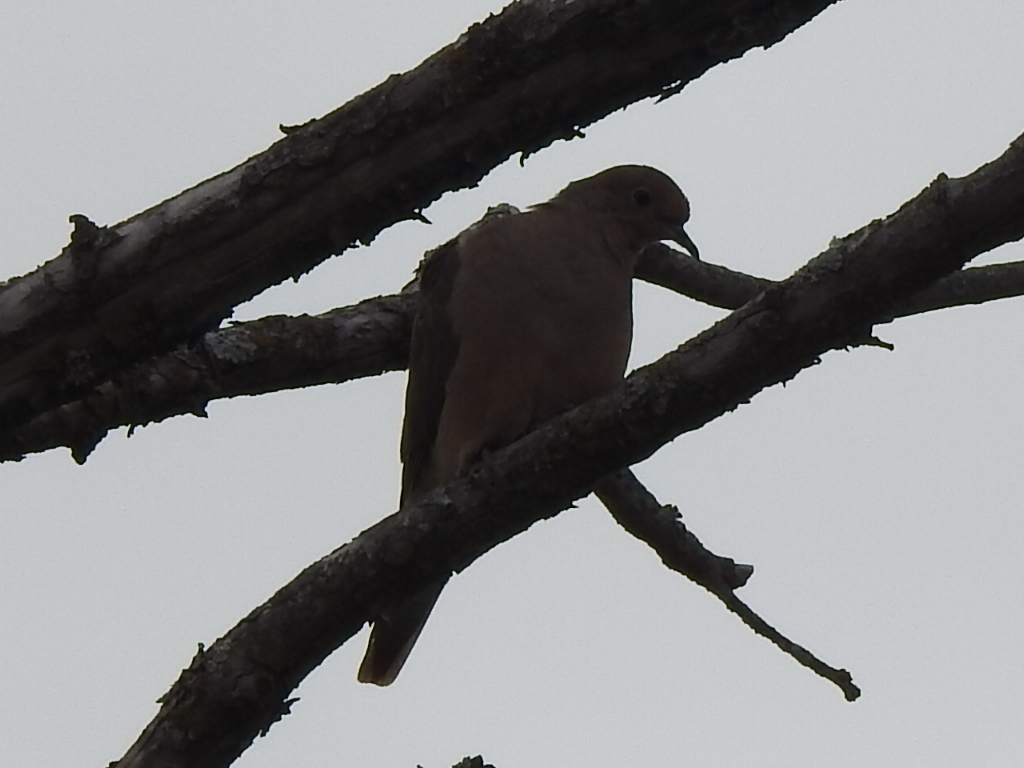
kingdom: Animalia
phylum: Chordata
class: Aves
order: Columbiformes
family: Columbidae
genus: Zenaida
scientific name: Zenaida macroura
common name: Mourning dove
